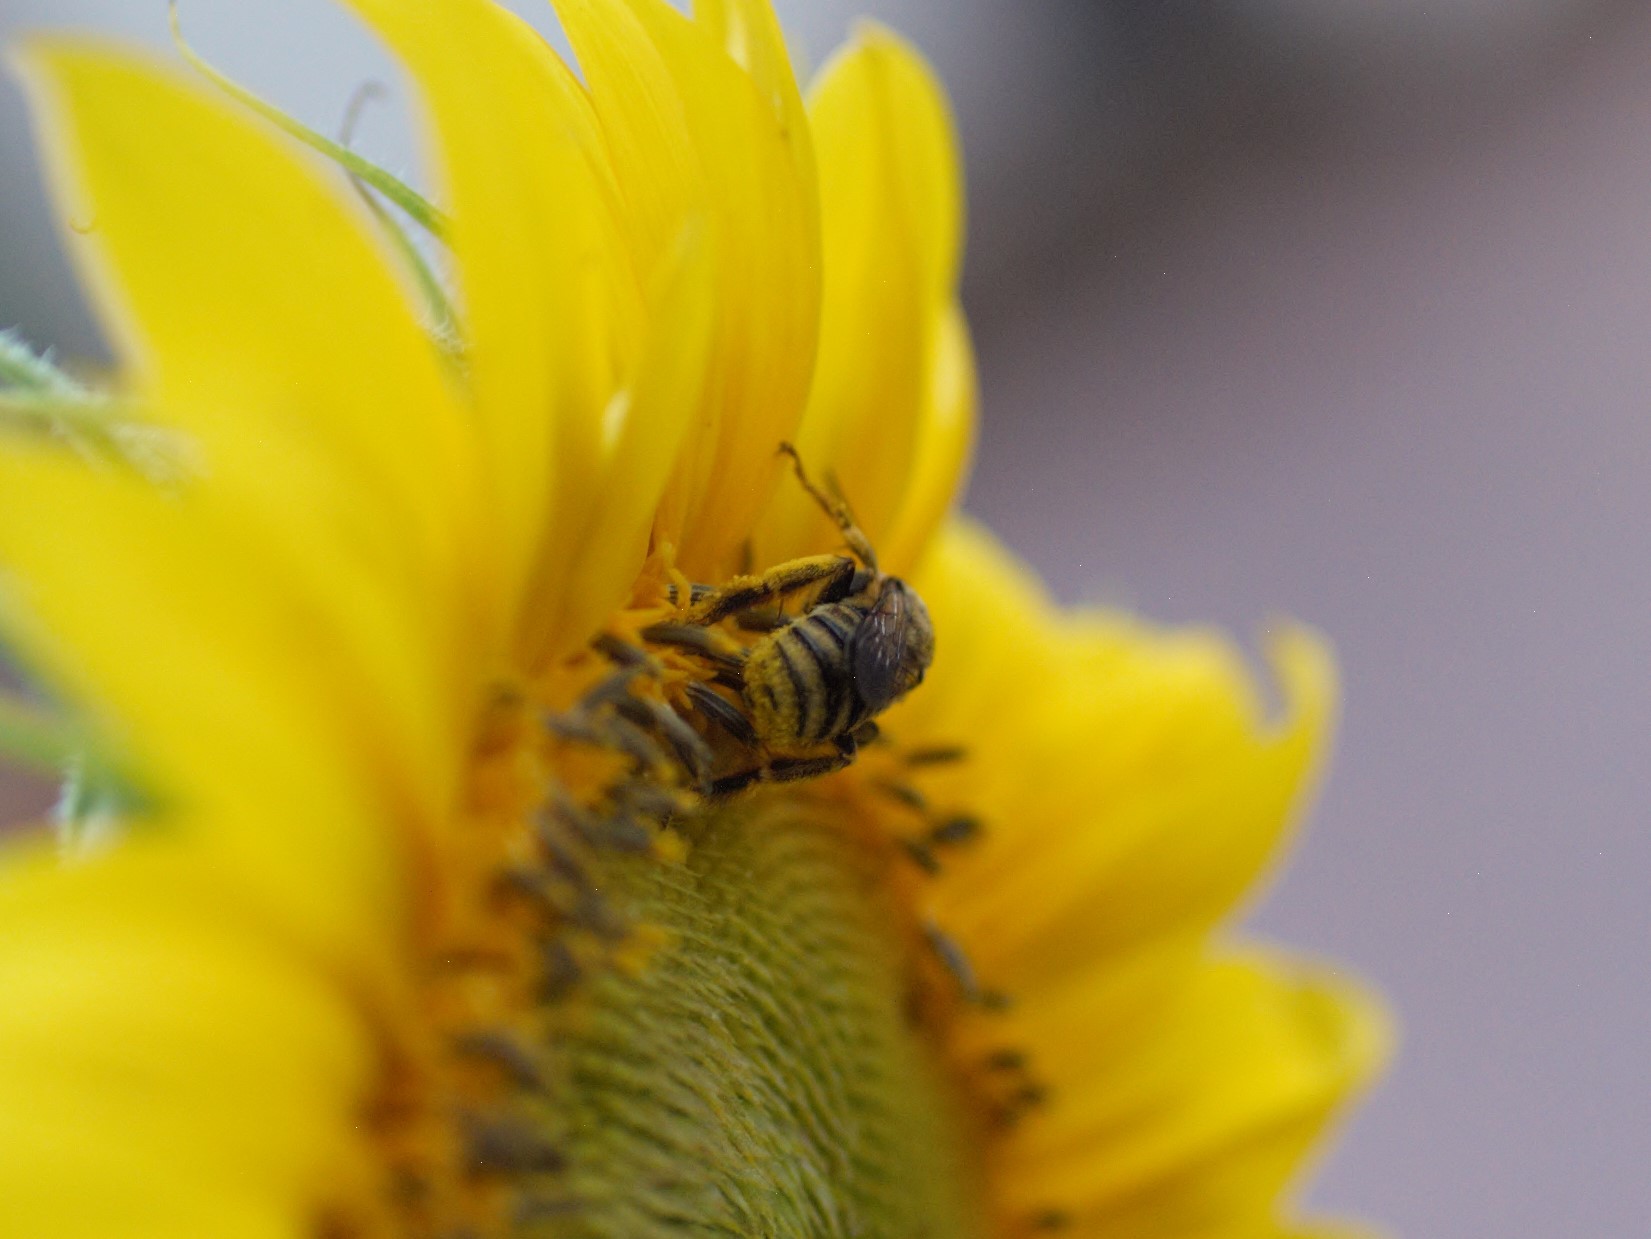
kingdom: Animalia
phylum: Arthropoda
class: Insecta
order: Hymenoptera
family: Apidae
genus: Svastra
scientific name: Svastra obliqua
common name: Oblique longhorn
